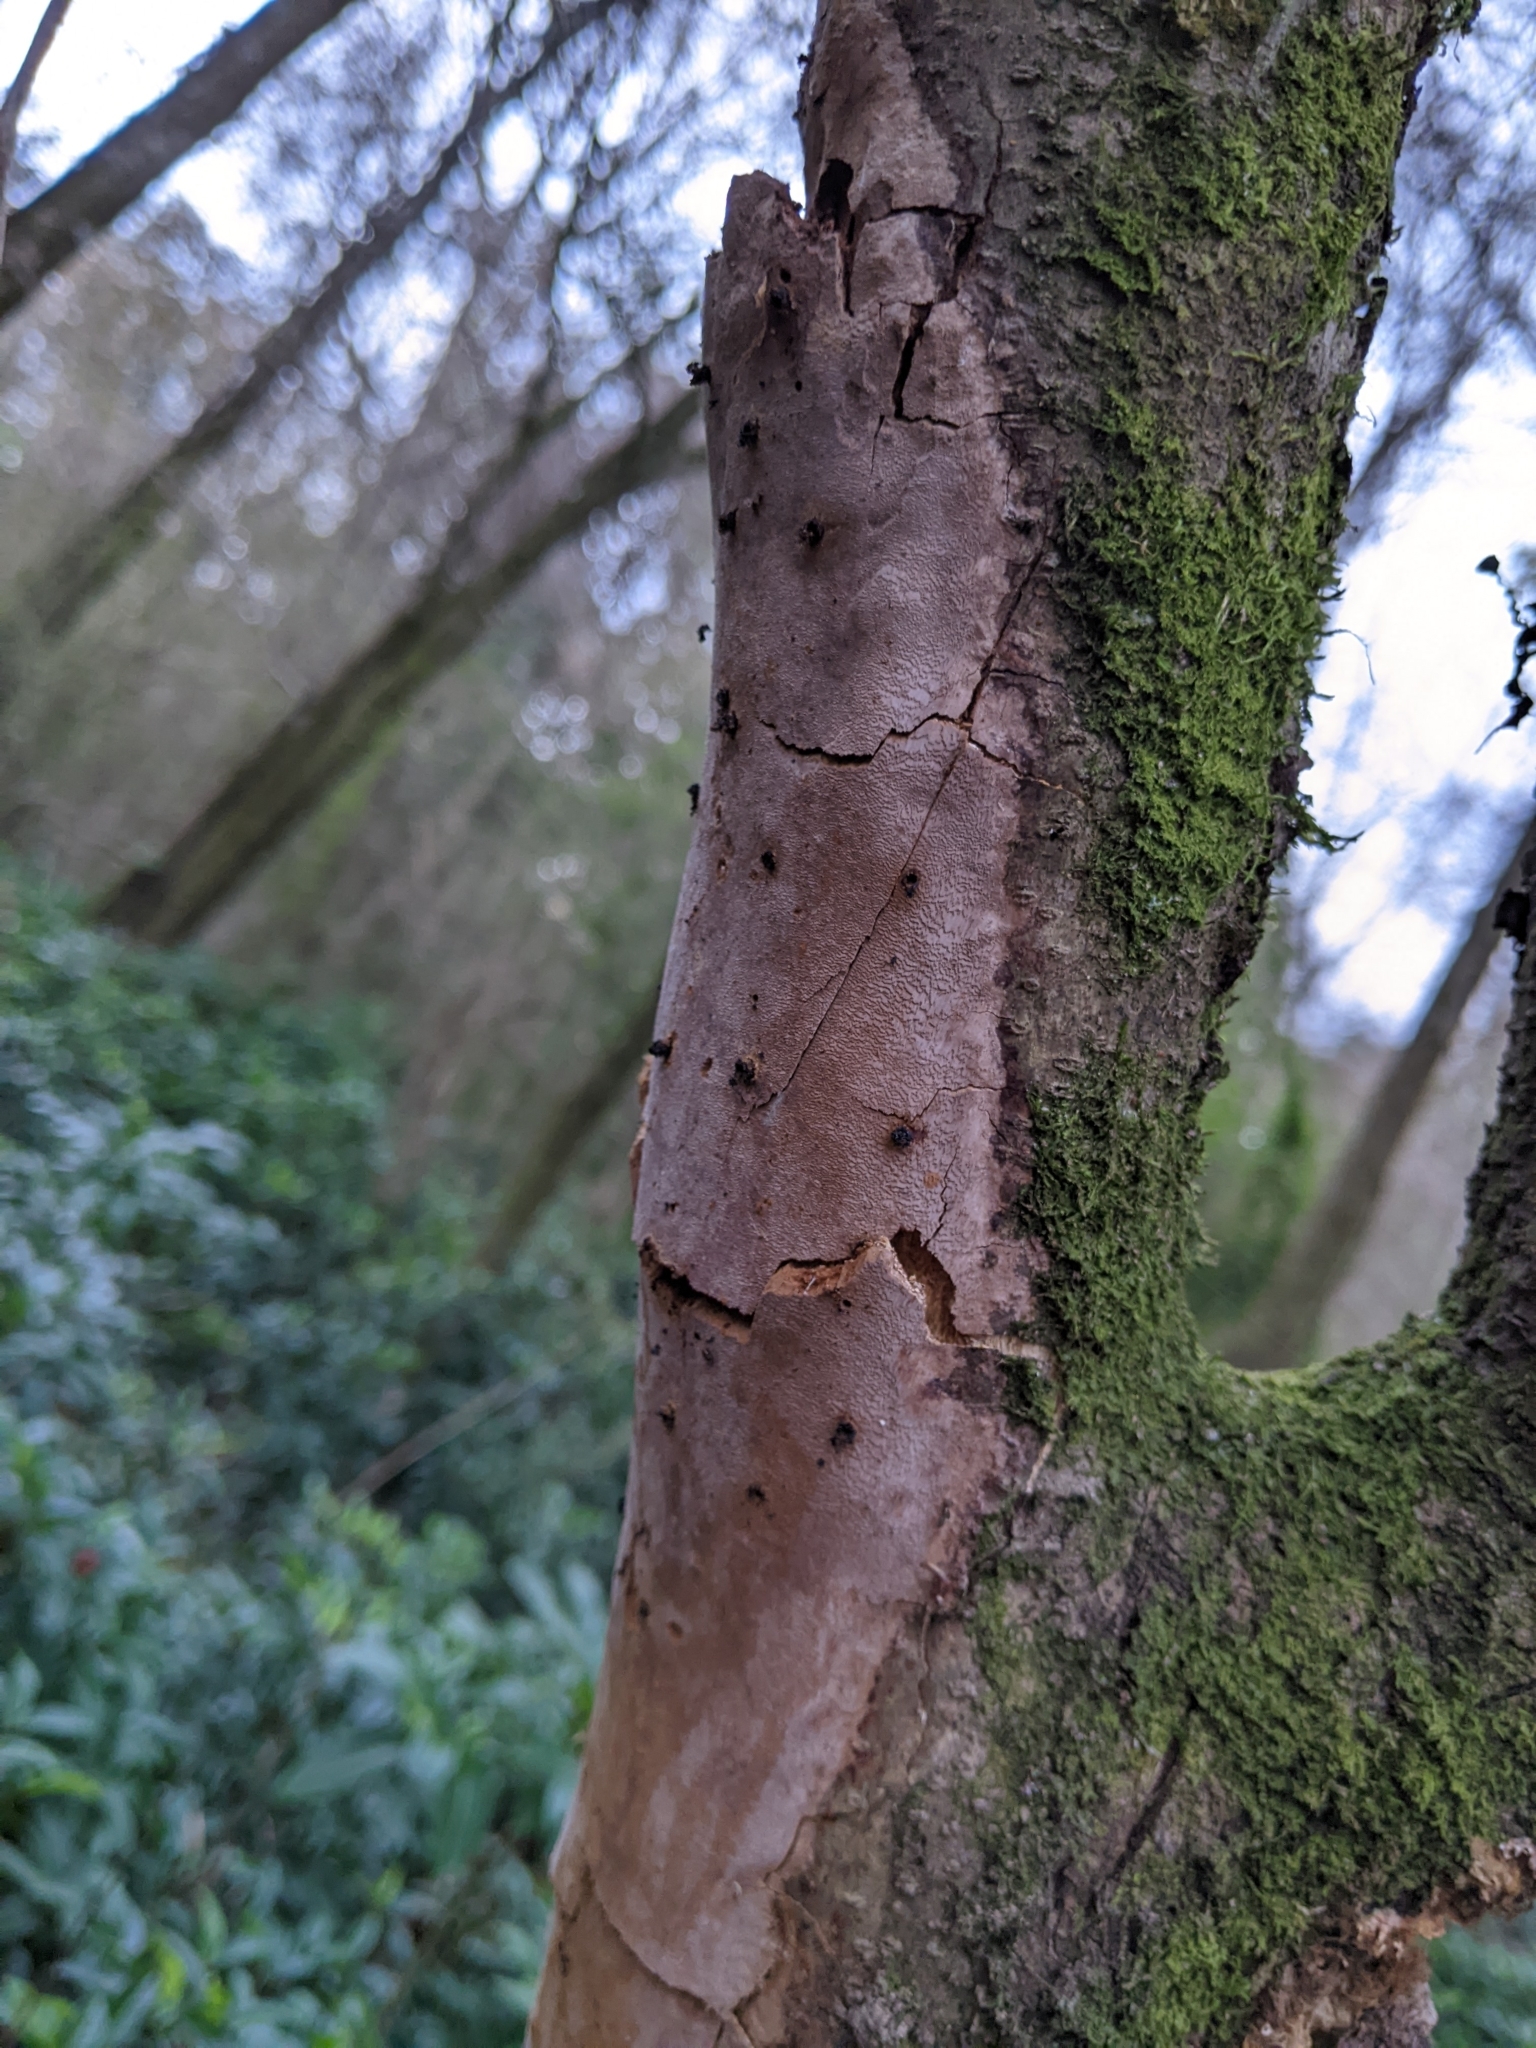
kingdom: Fungi
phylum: Basidiomycota
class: Agaricomycetes
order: Hymenochaetales
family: Hymenochaetaceae
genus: Fomitiporia
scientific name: Fomitiporia punctata
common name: Elbowpatch crust
